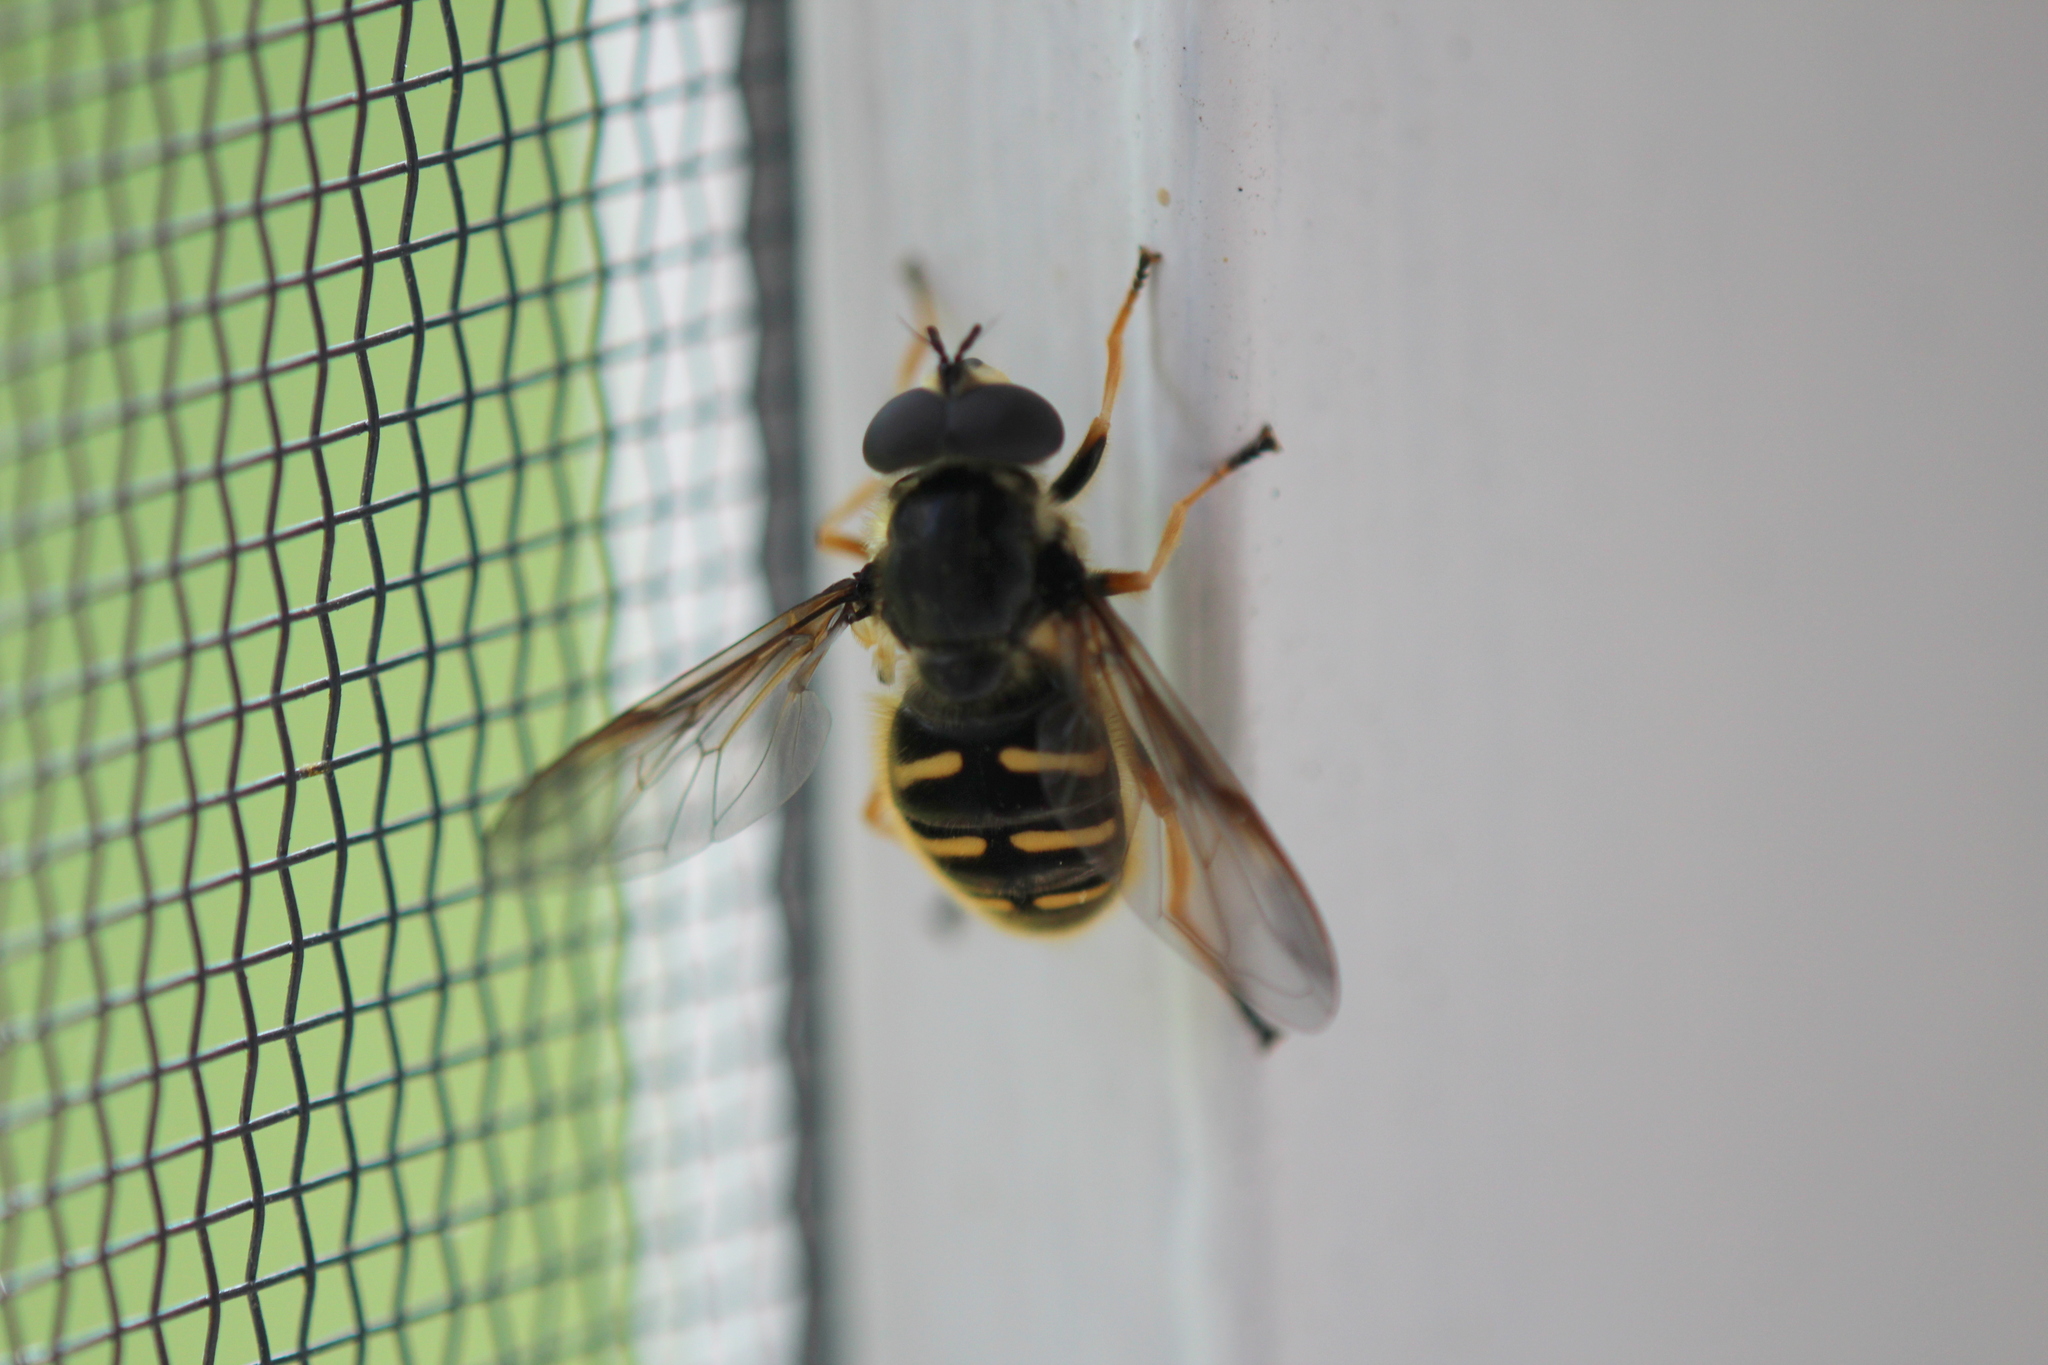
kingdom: Animalia
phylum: Arthropoda
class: Insecta
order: Diptera
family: Syrphidae
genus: Sericomyia
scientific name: Sericomyia chrysotoxoides
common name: Oblique-banded pond fly
